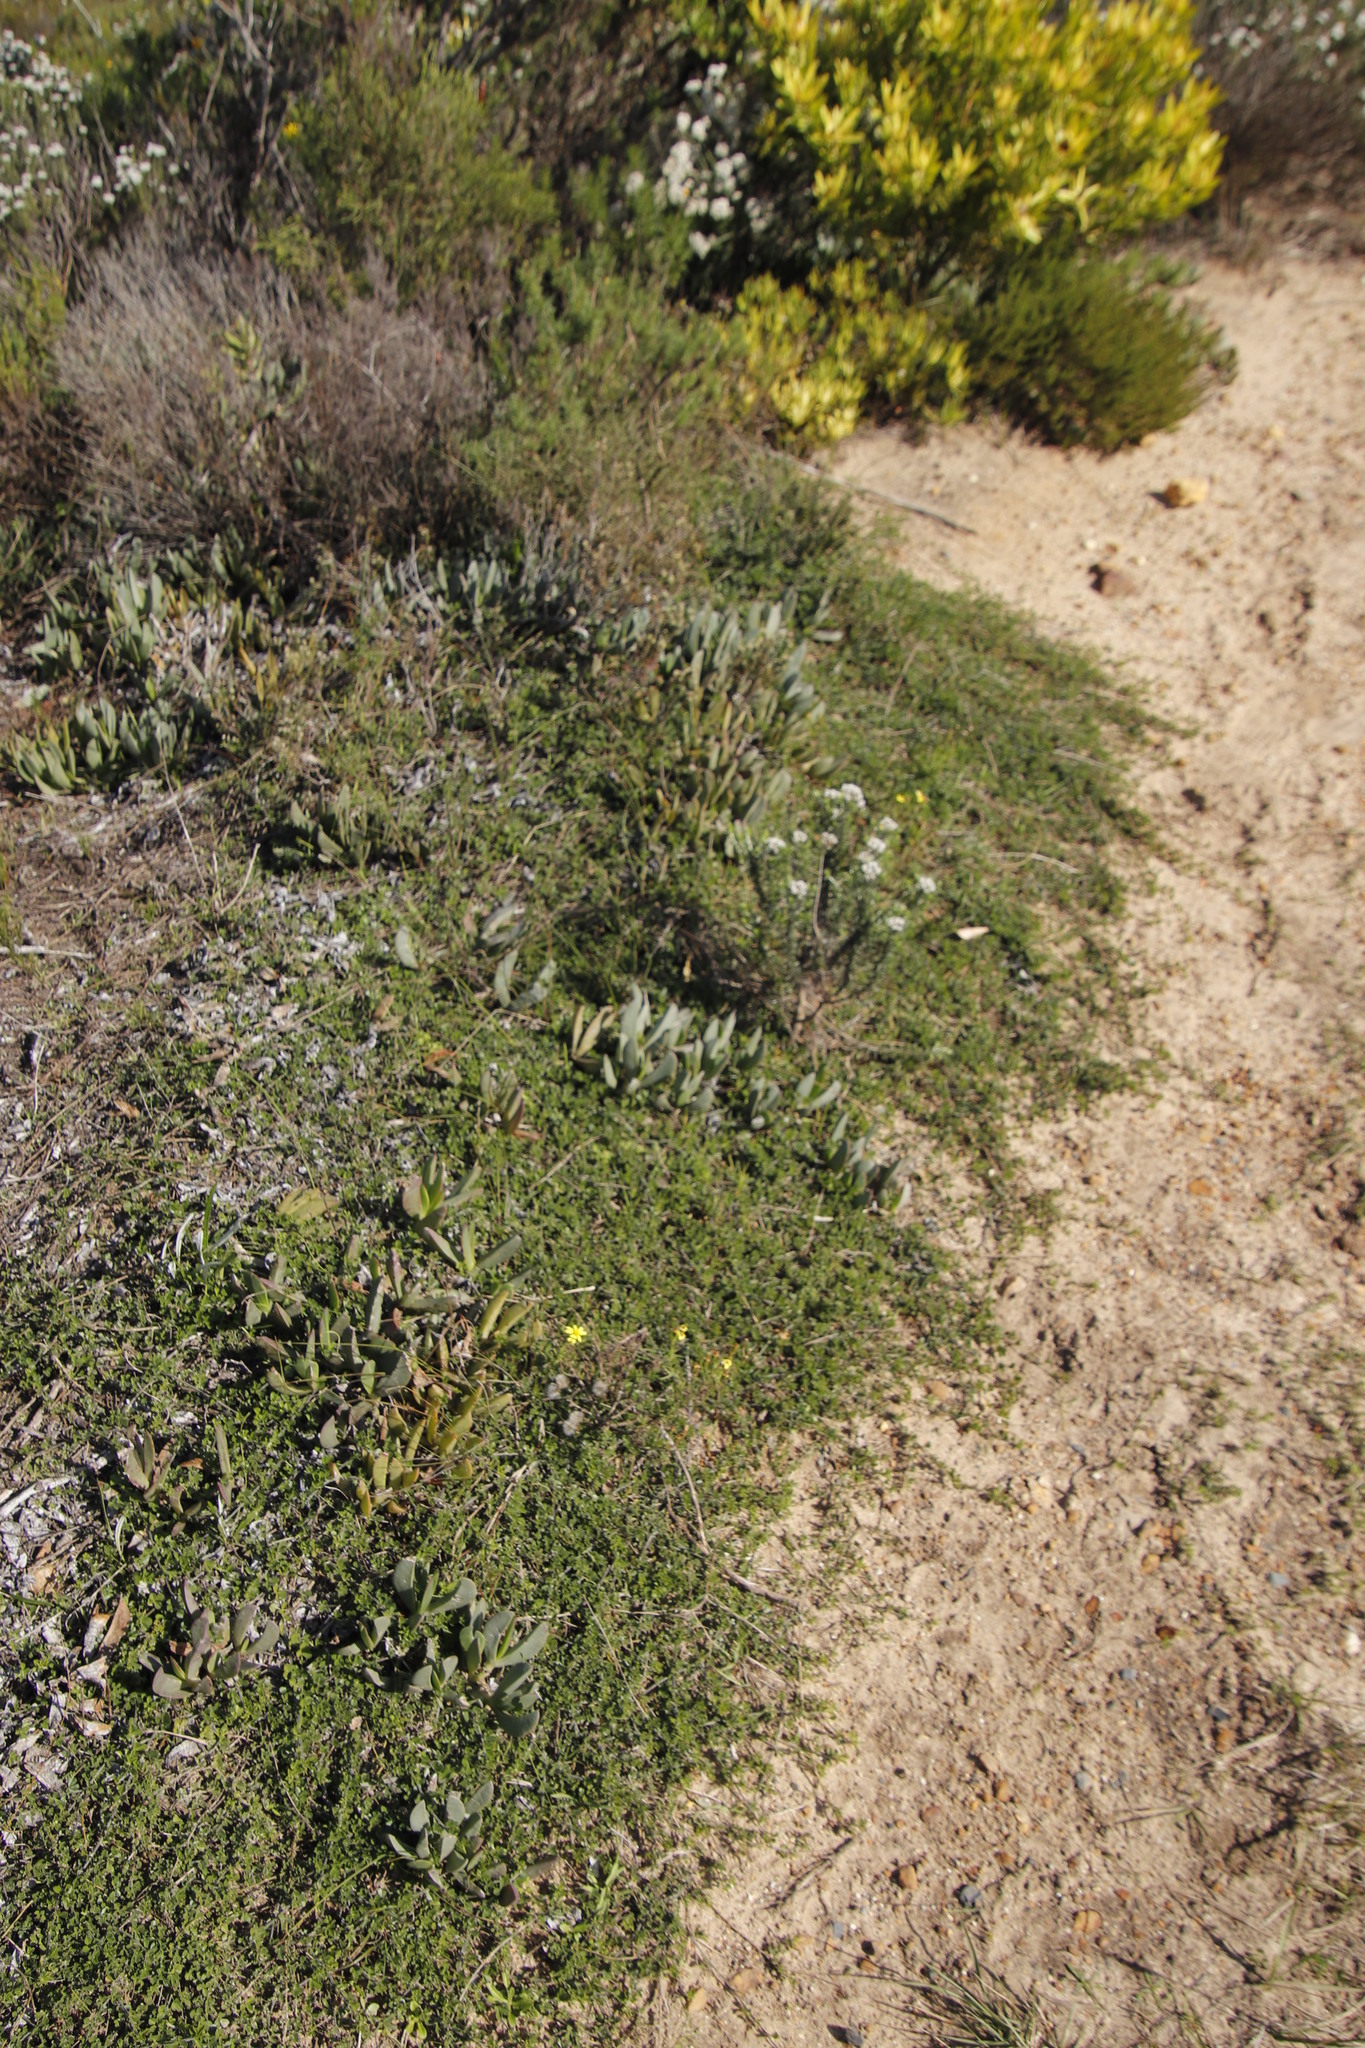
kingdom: Plantae
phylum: Tracheophyta
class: Magnoliopsida
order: Fabales
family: Fabaceae
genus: Psoralea
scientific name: Psoralea
